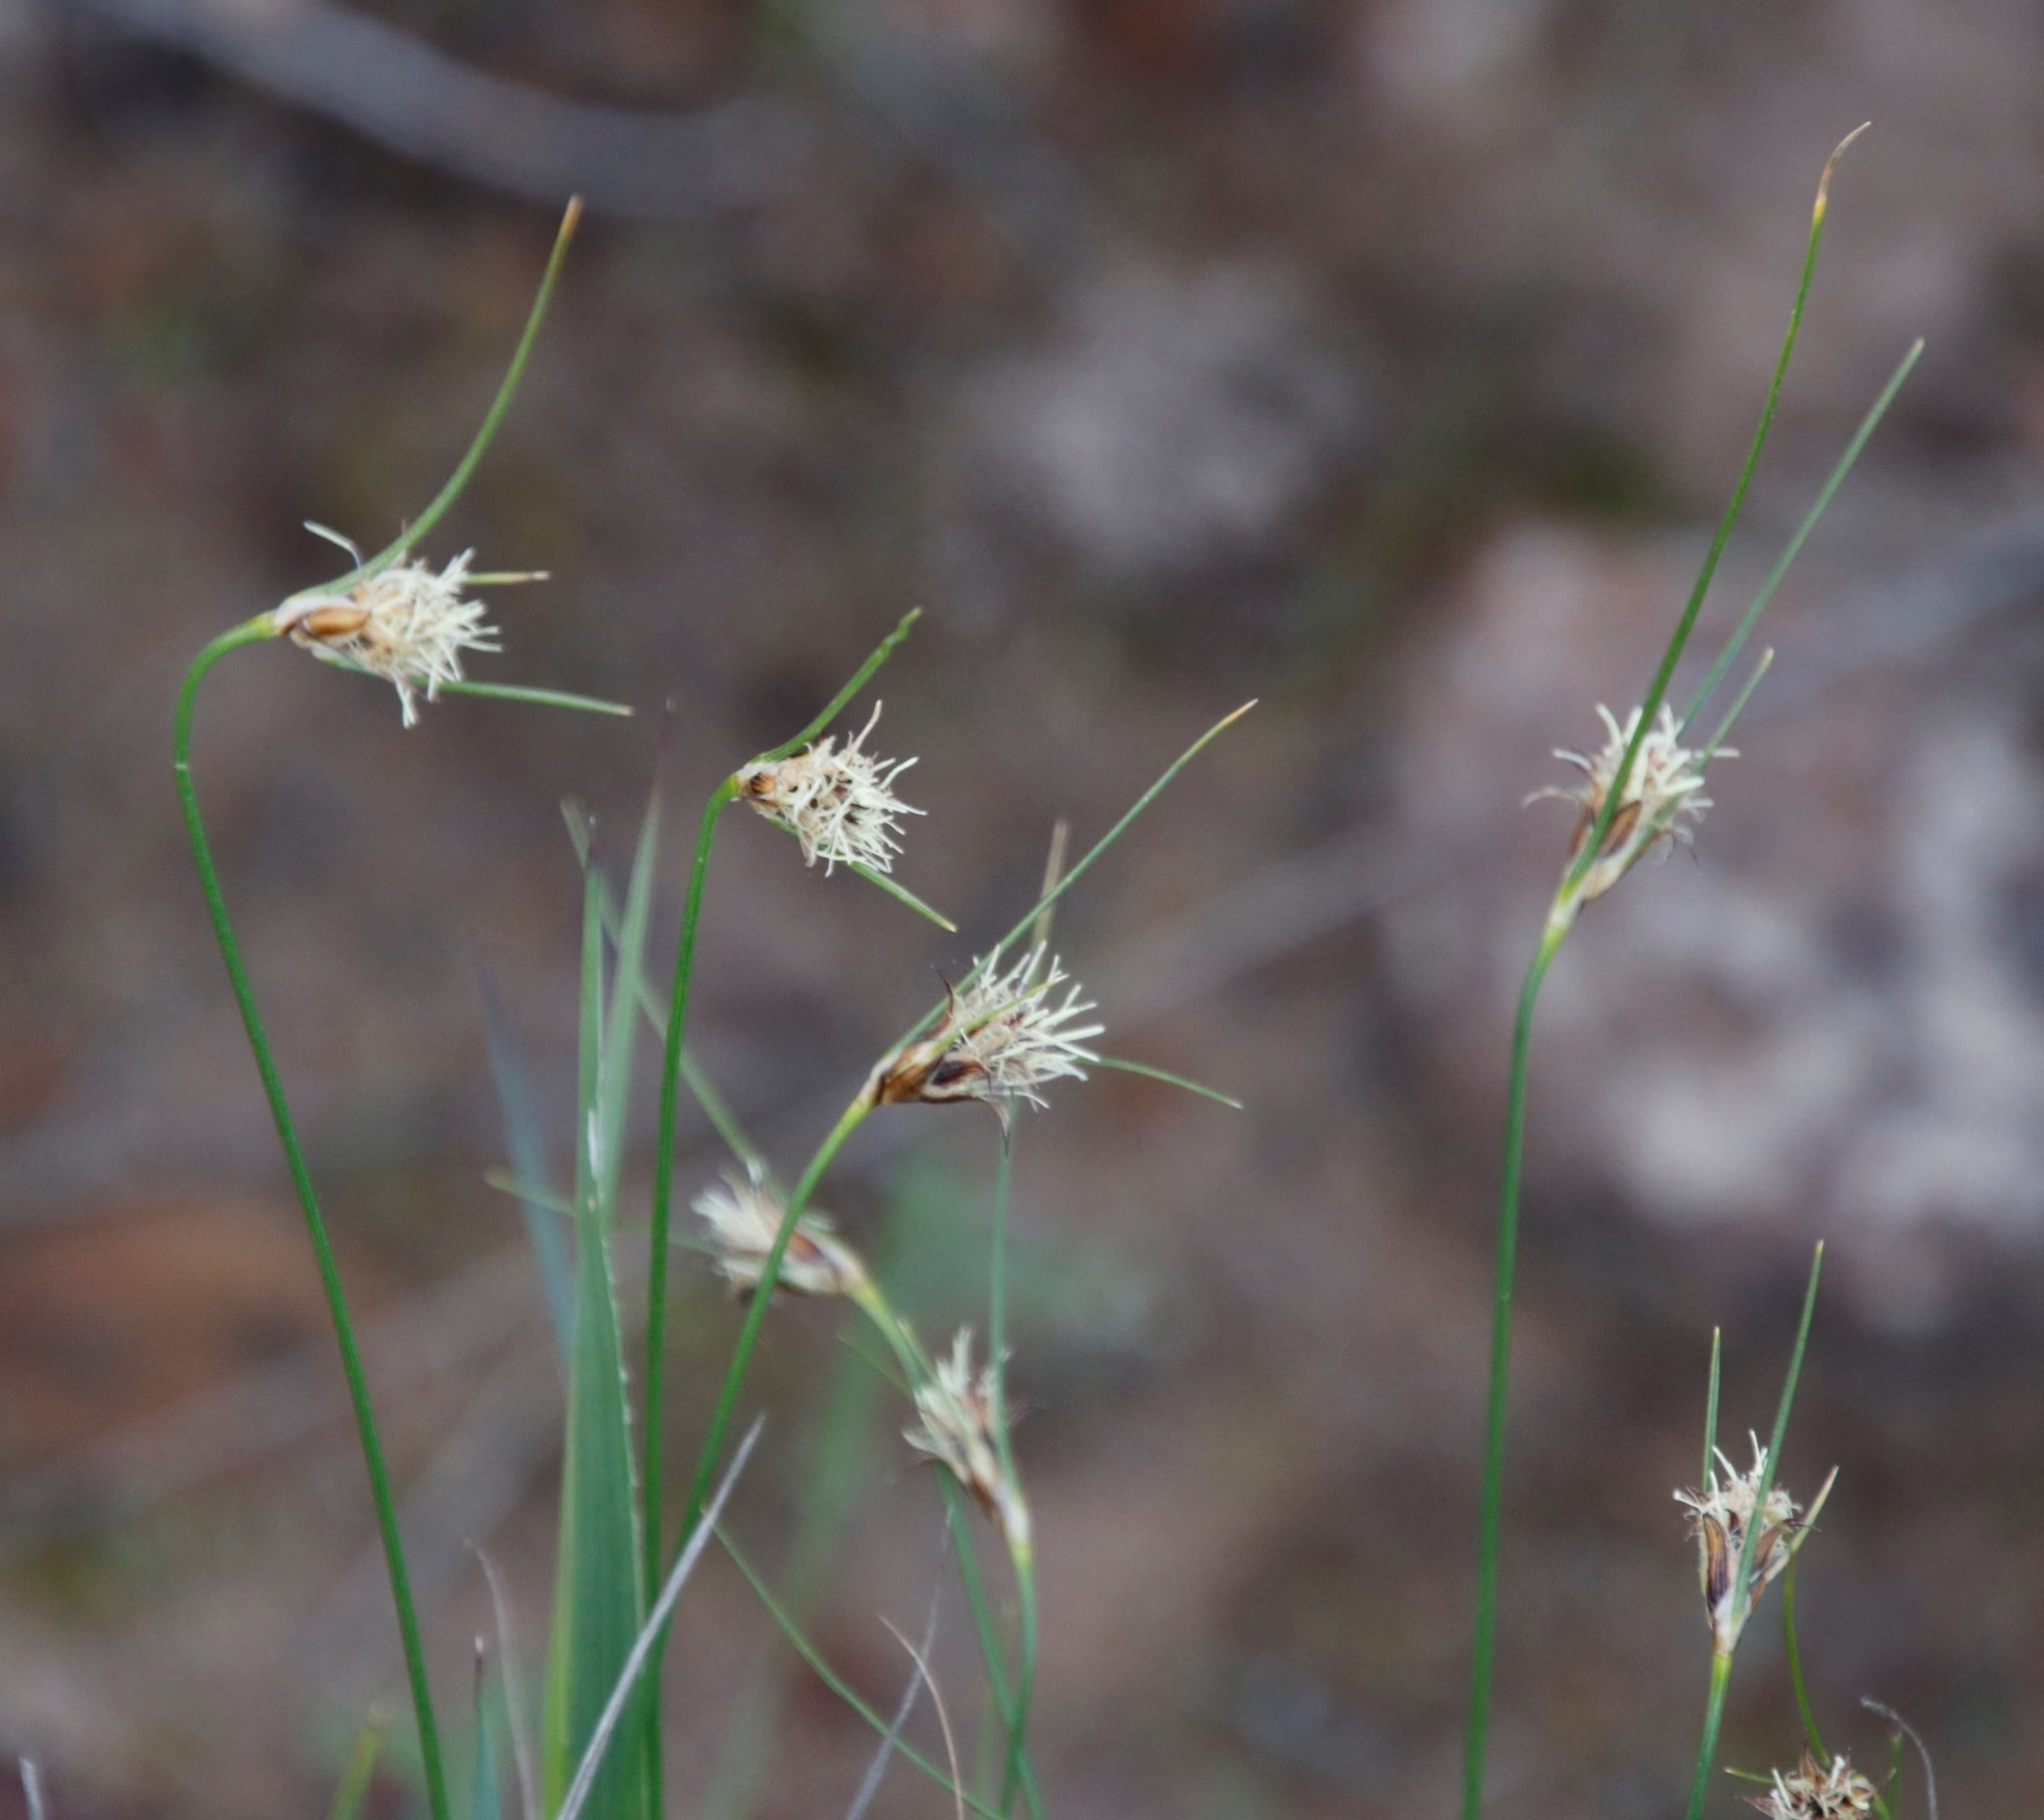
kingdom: Plantae
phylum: Tracheophyta
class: Liliopsida
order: Poales
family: Cyperaceae
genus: Ficinia
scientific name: Ficinia nigrescens
